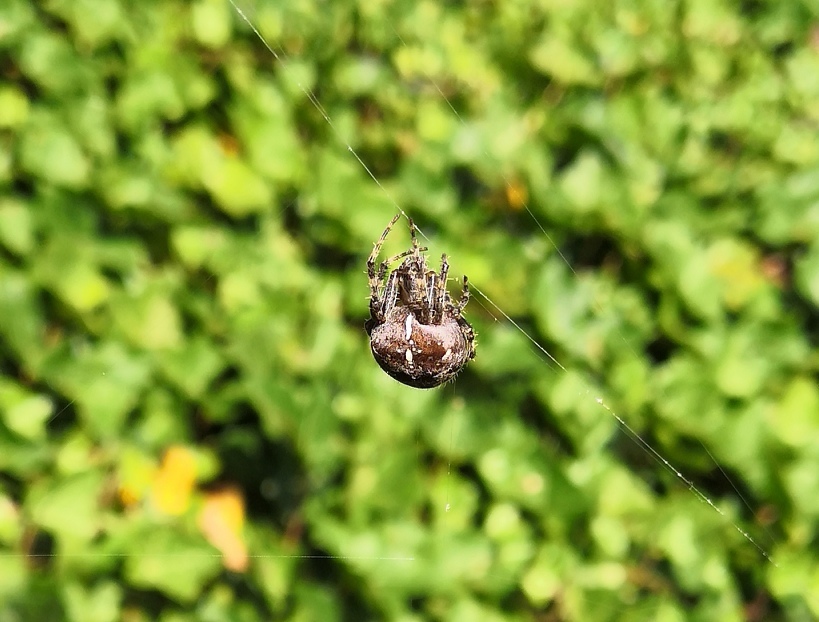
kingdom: Animalia
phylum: Arthropoda
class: Arachnida
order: Araneae
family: Araneidae
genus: Araneus
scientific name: Araneus diadematus
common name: Cross orbweaver
